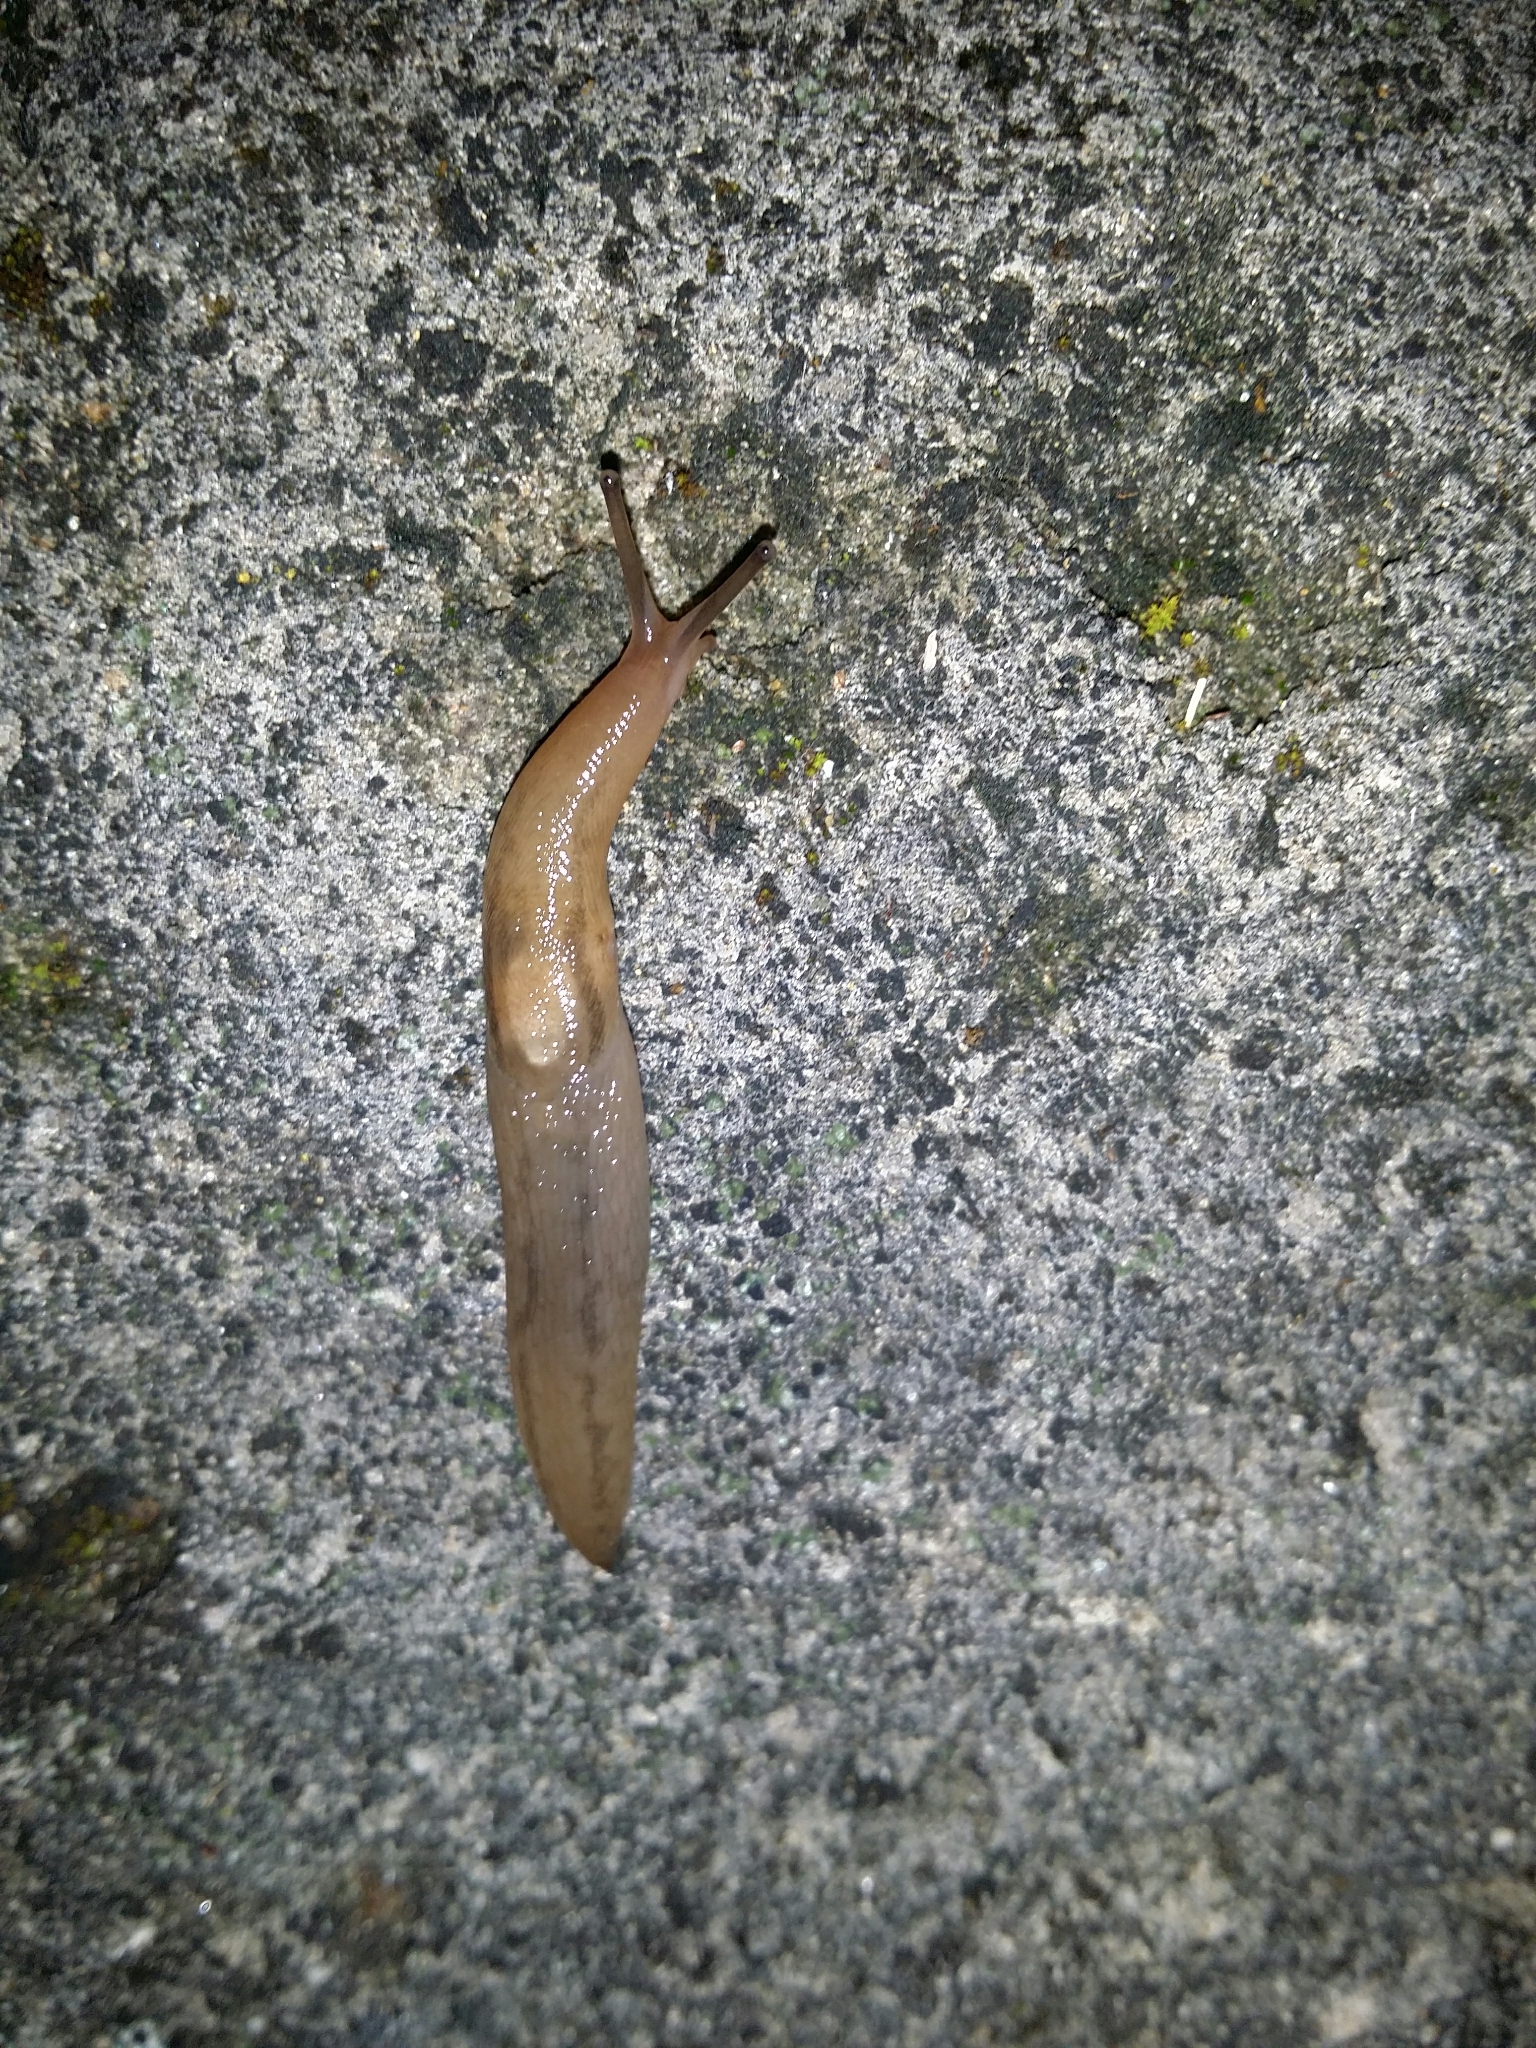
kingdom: Animalia
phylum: Mollusca
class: Gastropoda
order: Stylommatophora
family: Limacidae
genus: Ambigolimax
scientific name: Ambigolimax
